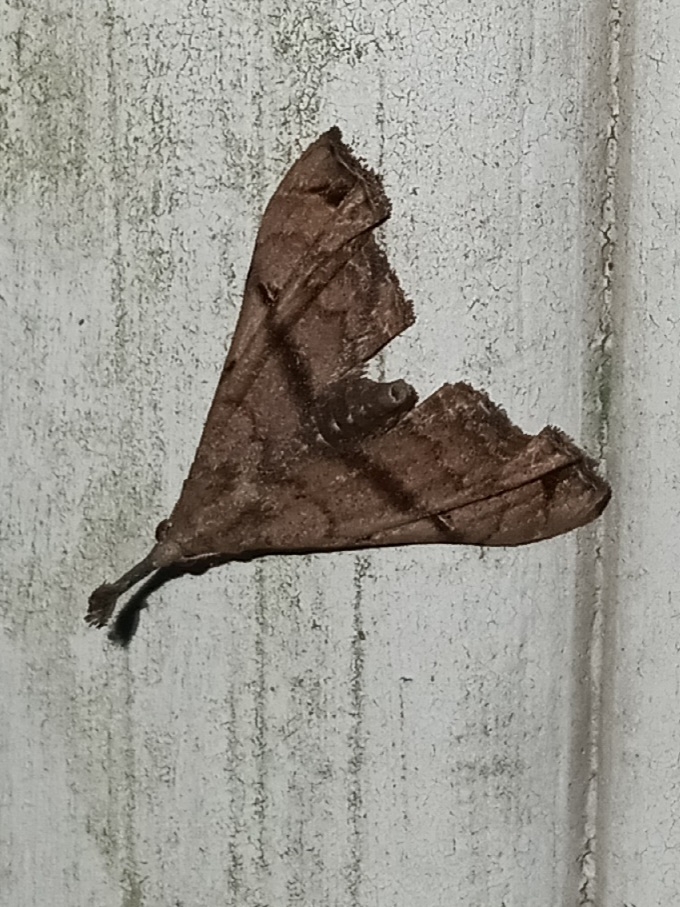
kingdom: Animalia
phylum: Arthropoda
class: Insecta
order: Lepidoptera
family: Erebidae
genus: Palthis
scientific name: Palthis asopialis
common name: Faint-spotted palthis moth
